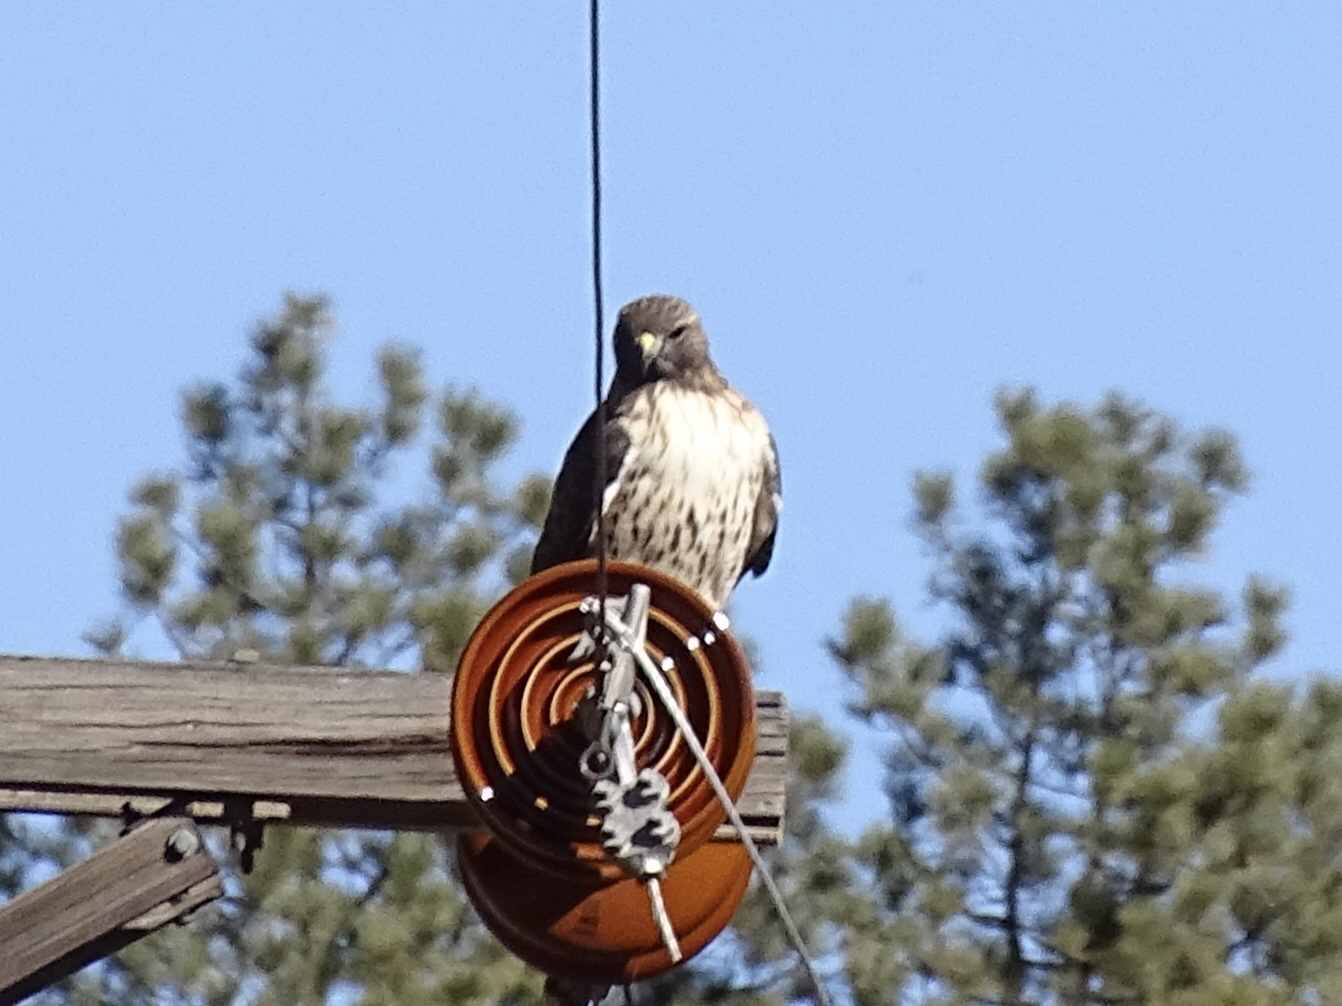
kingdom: Animalia
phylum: Chordata
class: Aves
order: Accipitriformes
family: Accipitridae
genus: Buteo
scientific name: Buteo jamaicensis
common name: Red-tailed hawk
